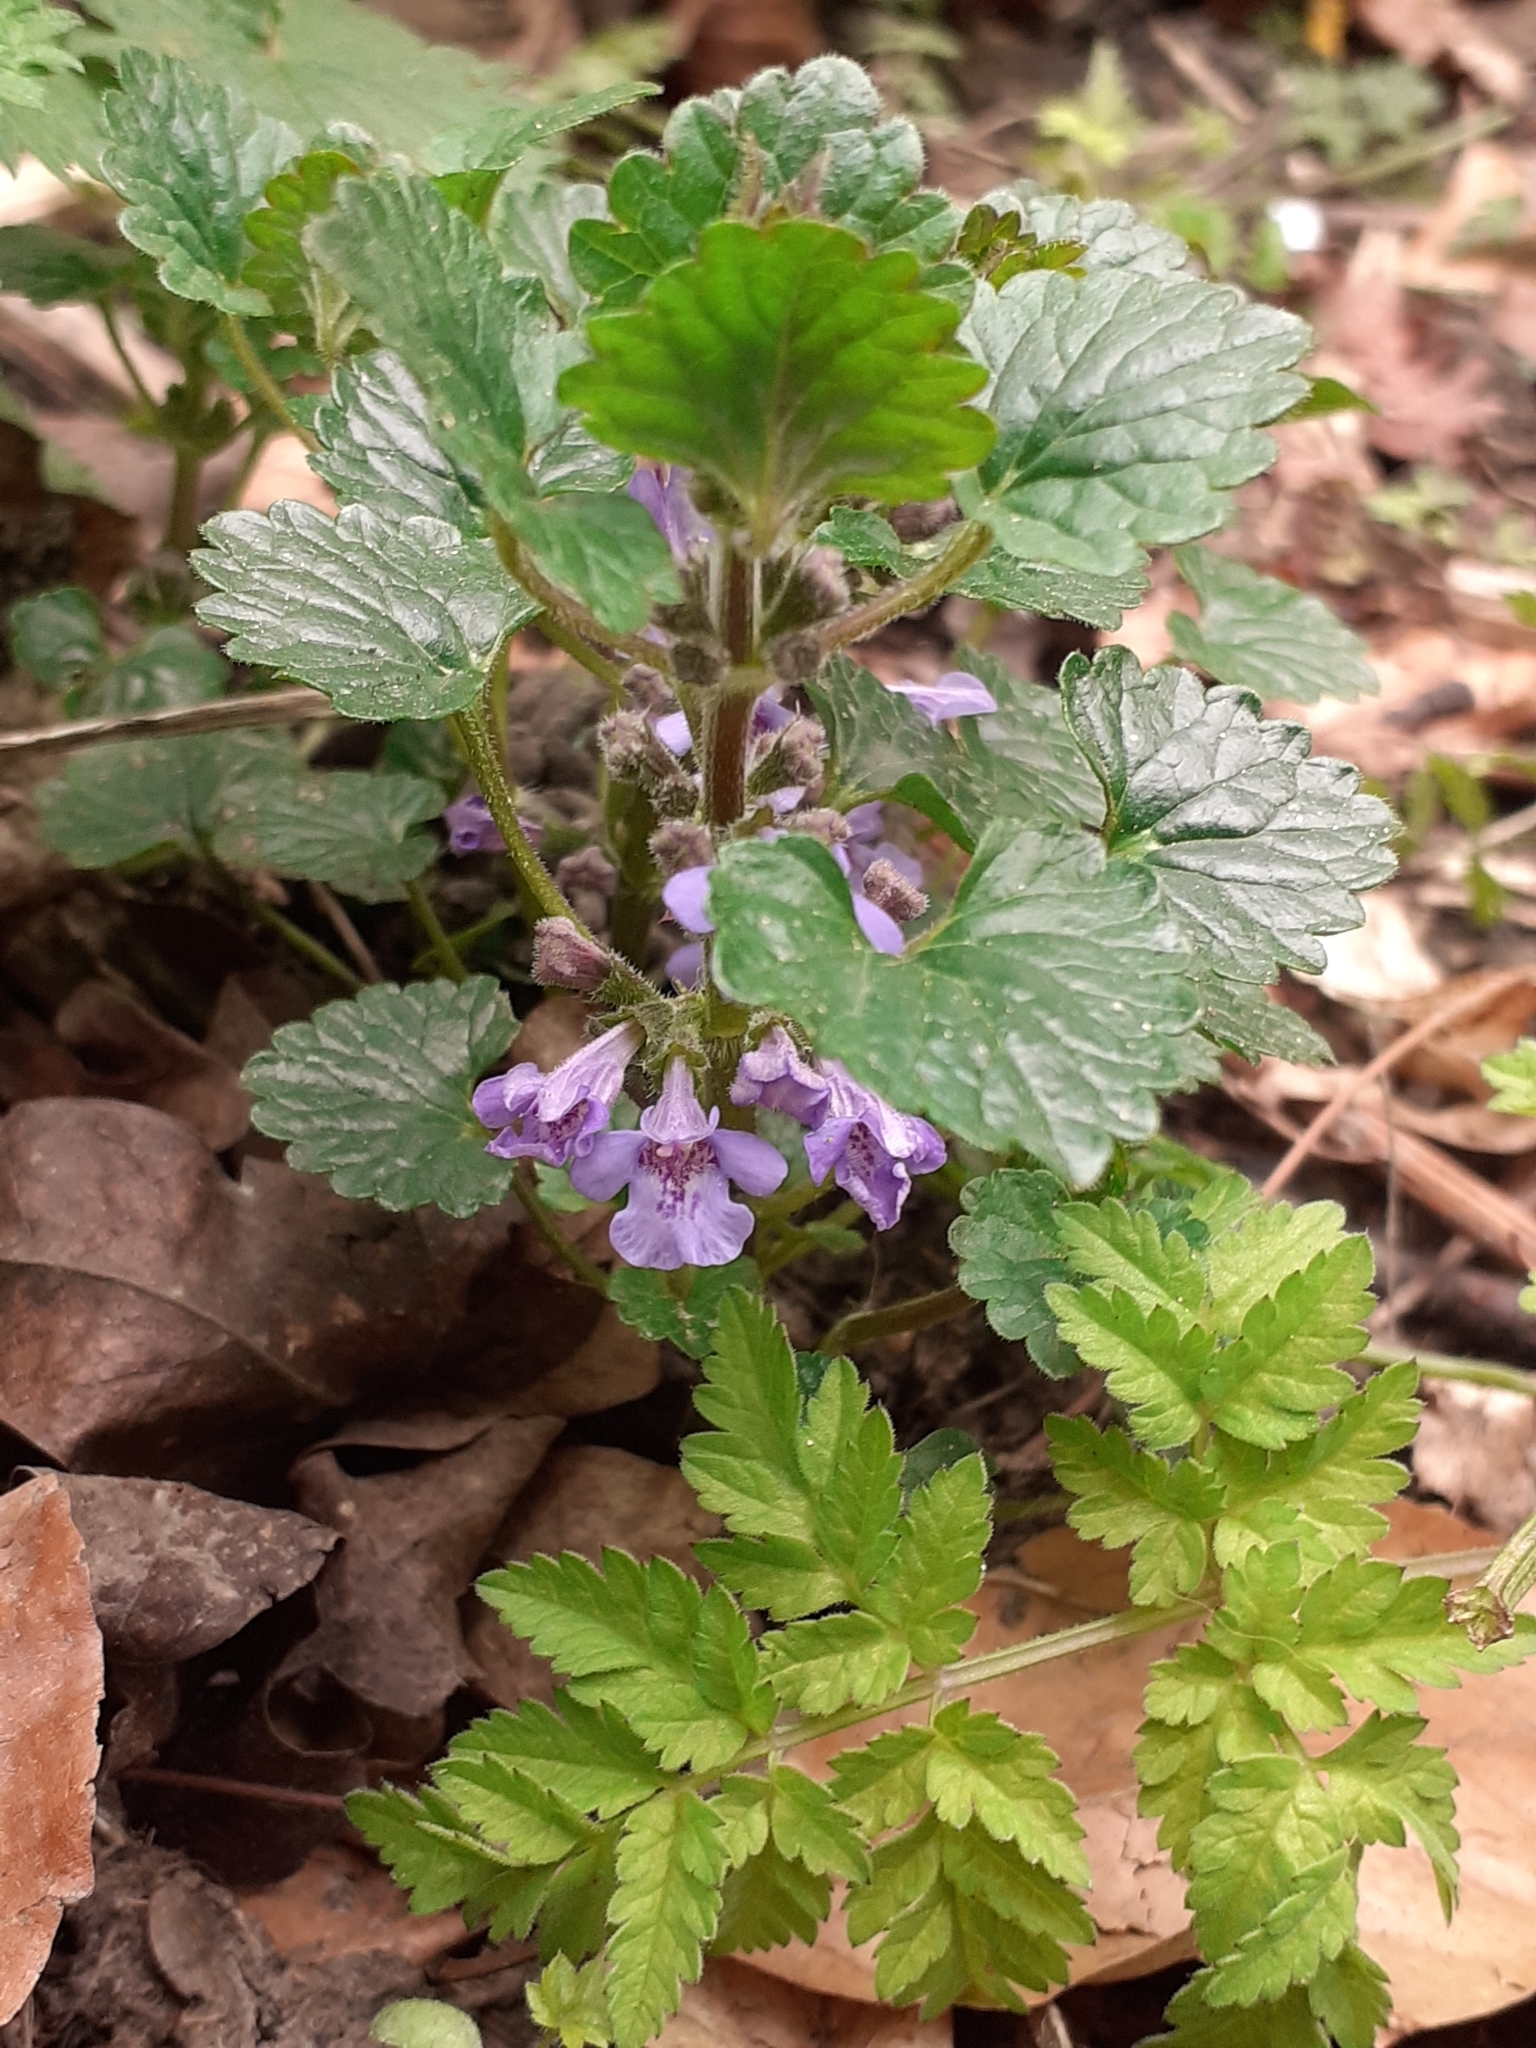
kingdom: Plantae
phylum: Tracheophyta
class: Magnoliopsida
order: Lamiales
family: Lamiaceae
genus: Glechoma
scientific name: Glechoma hederacea
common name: Ground ivy
